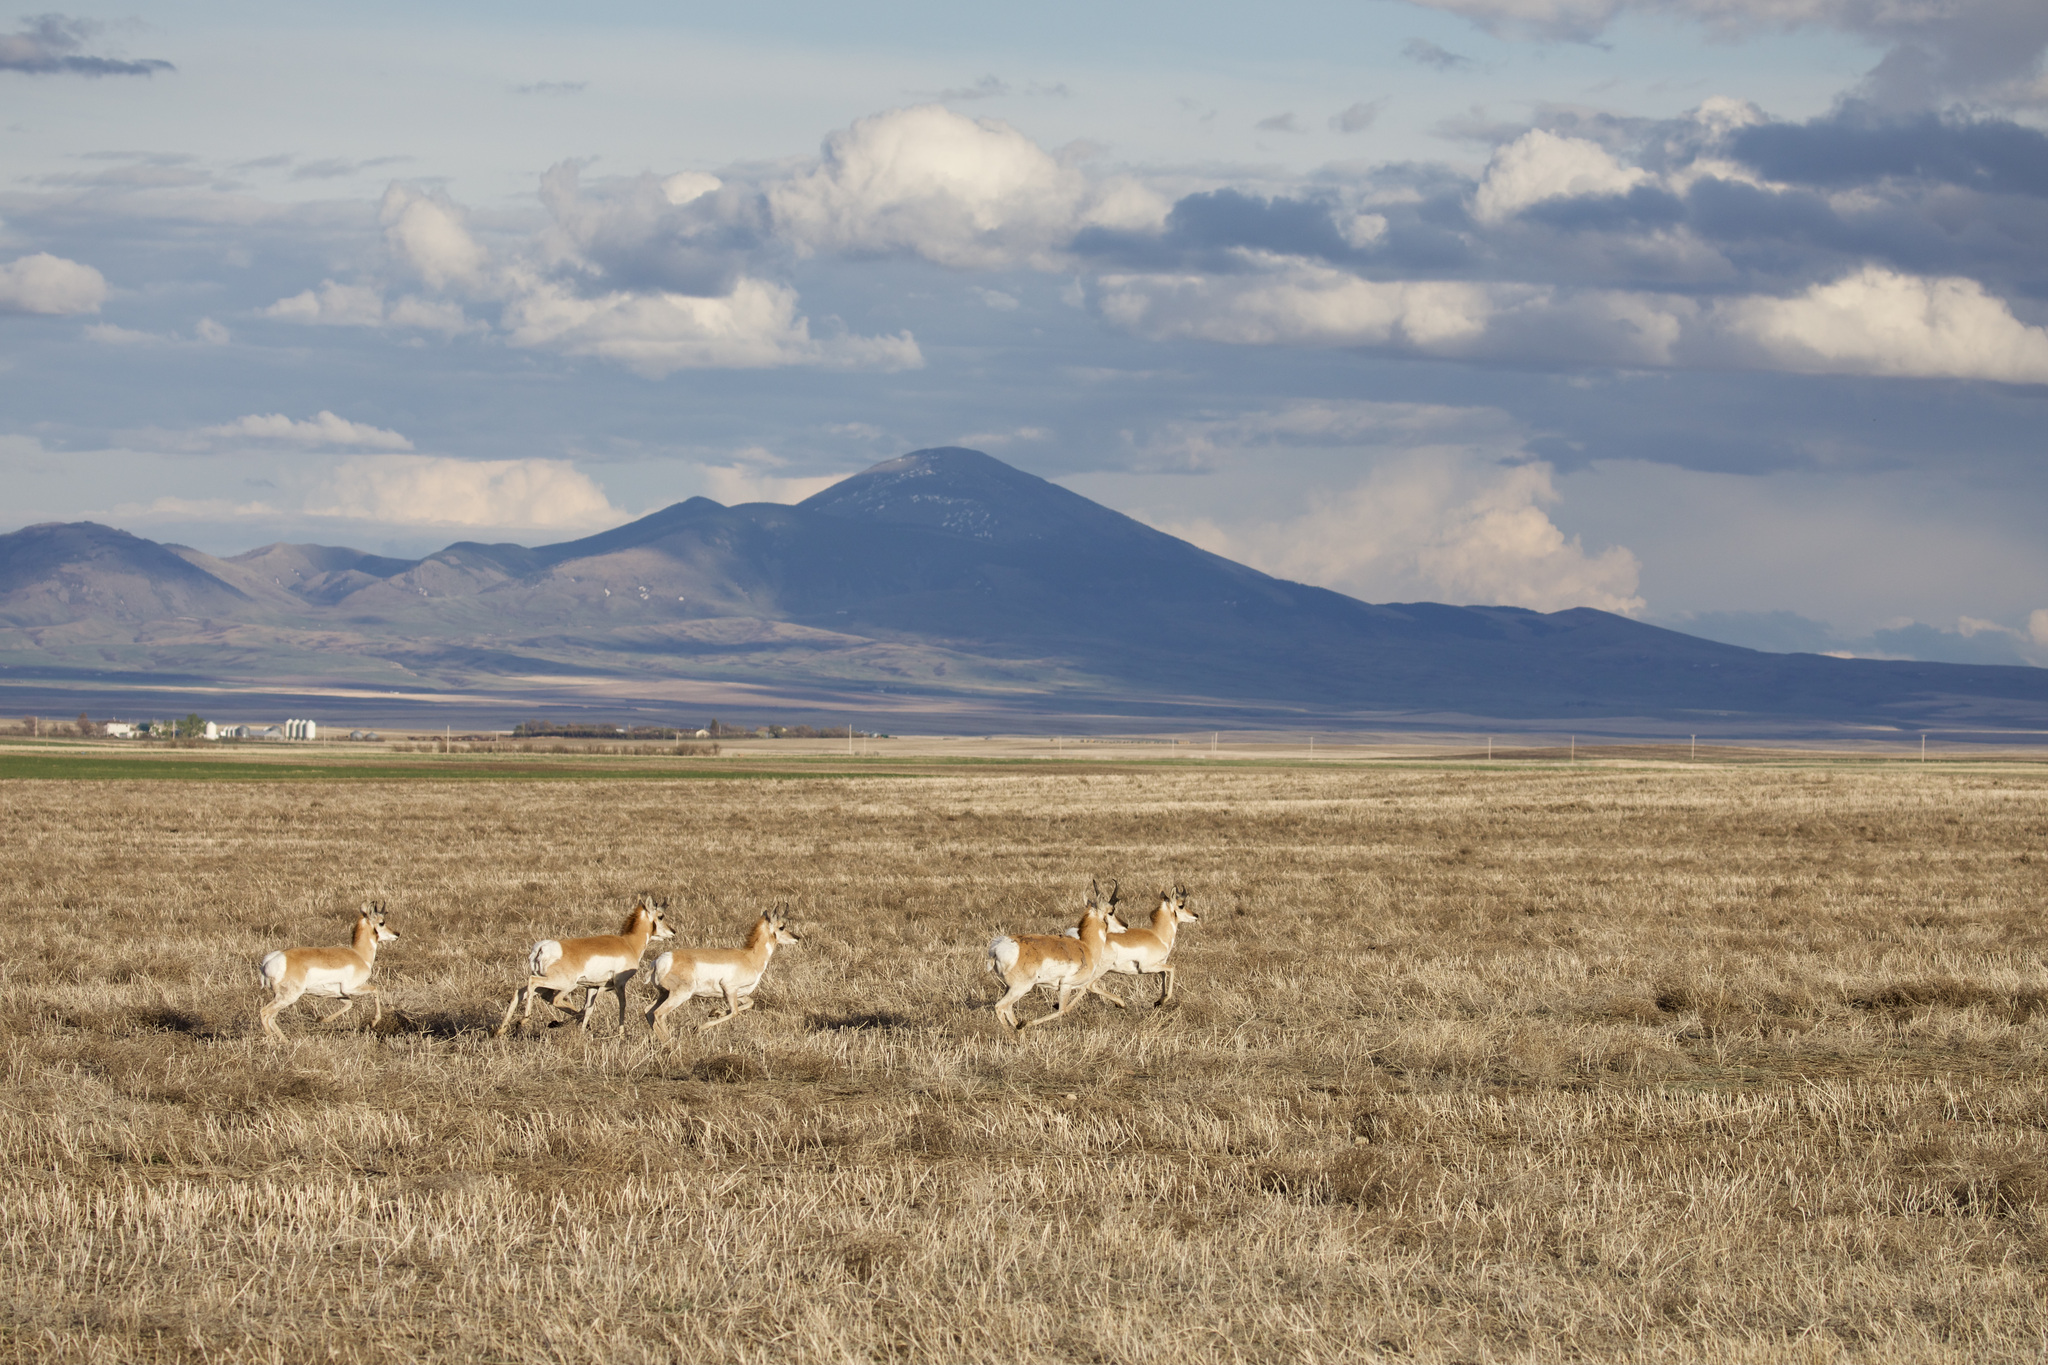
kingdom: Animalia
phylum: Chordata
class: Mammalia
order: Artiodactyla
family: Antilocapridae
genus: Antilocapra
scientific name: Antilocapra americana
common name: Pronghorn
